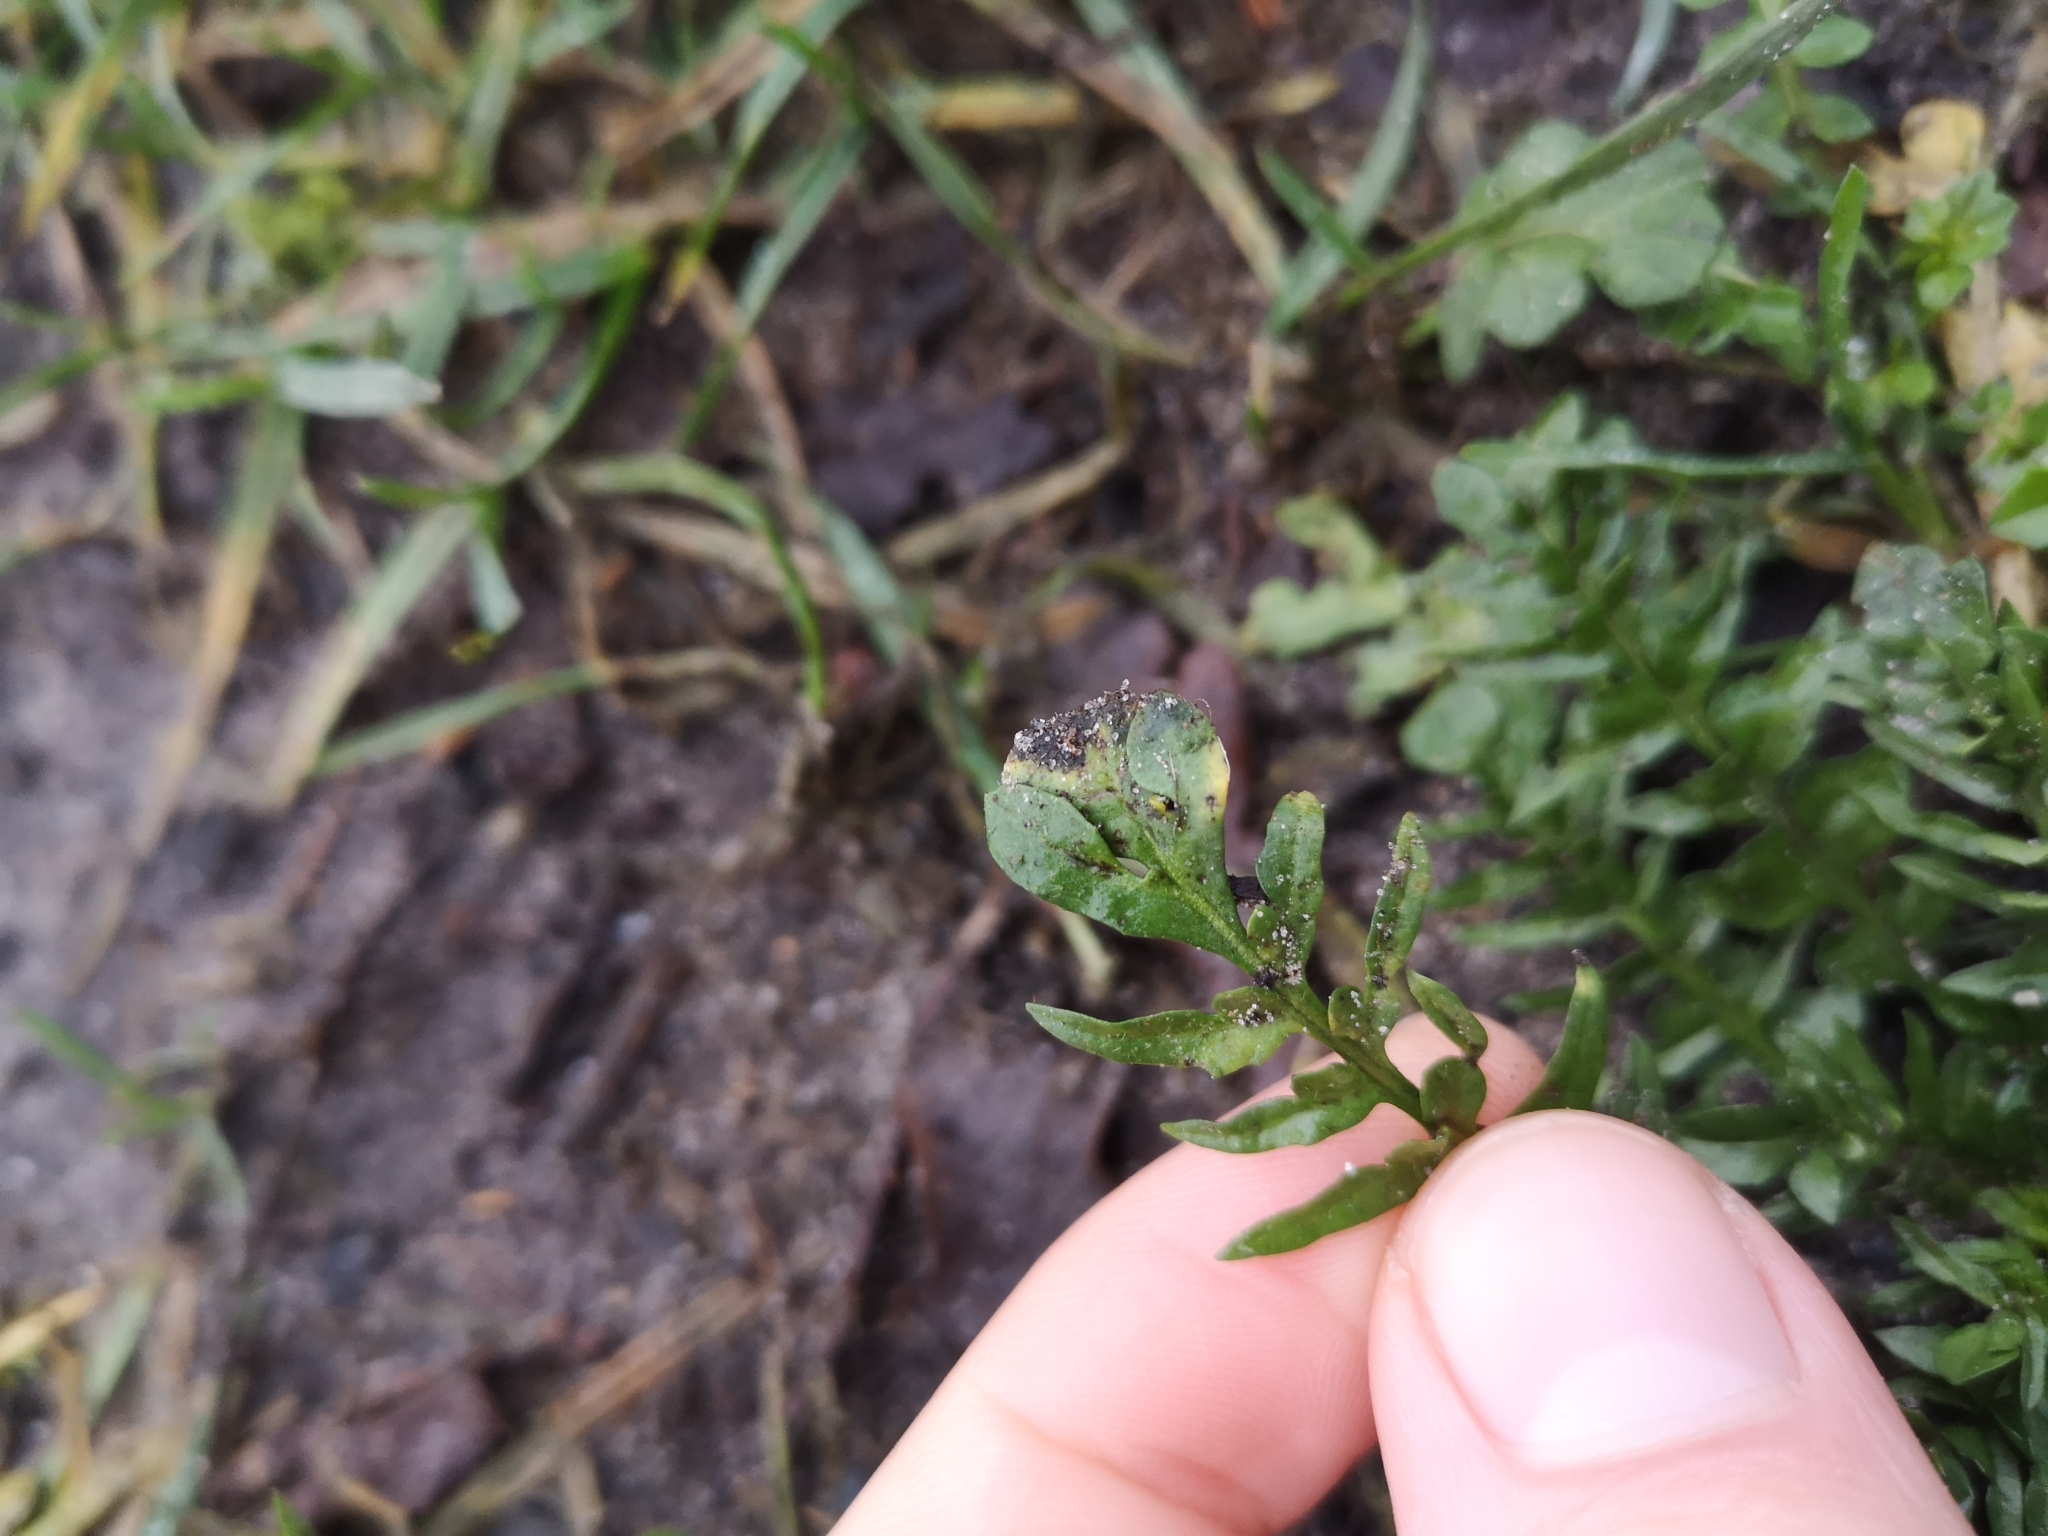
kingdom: Plantae
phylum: Tracheophyta
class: Magnoliopsida
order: Brassicales
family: Brassicaceae
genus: Capsella
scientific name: Capsella bursa-pastoris
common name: Shepherd's purse
